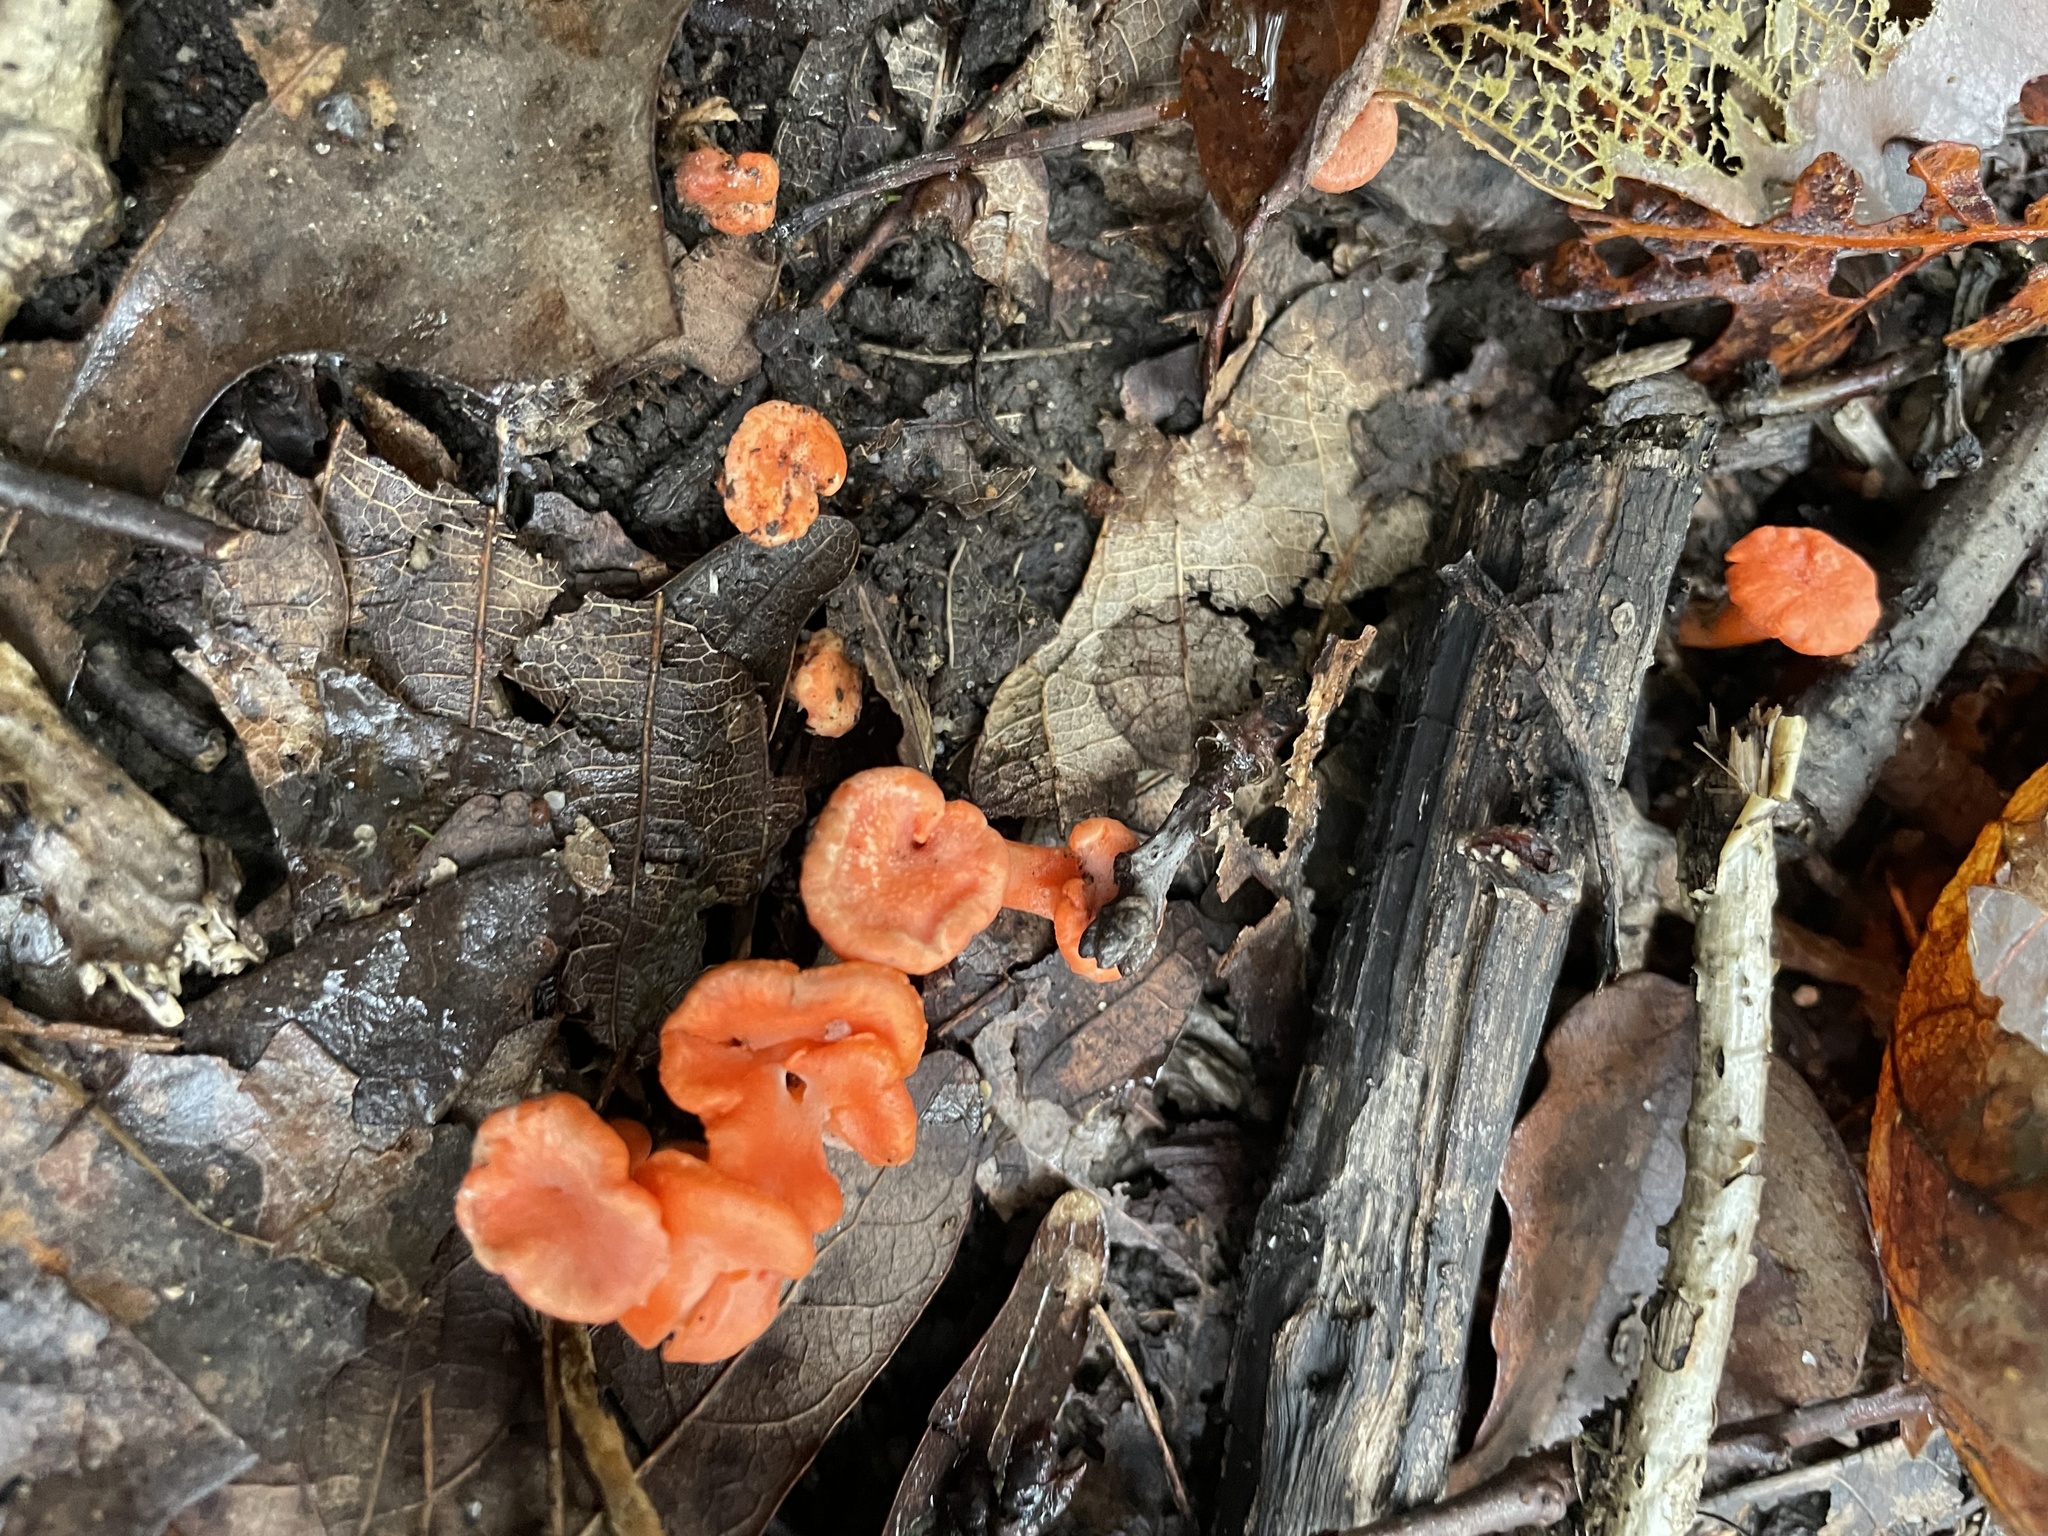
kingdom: Fungi
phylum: Basidiomycota
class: Agaricomycetes
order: Cantharellales
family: Hydnaceae
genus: Cantharellus
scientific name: Cantharellus cinnabarinus
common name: Cinnabar chanterelle
